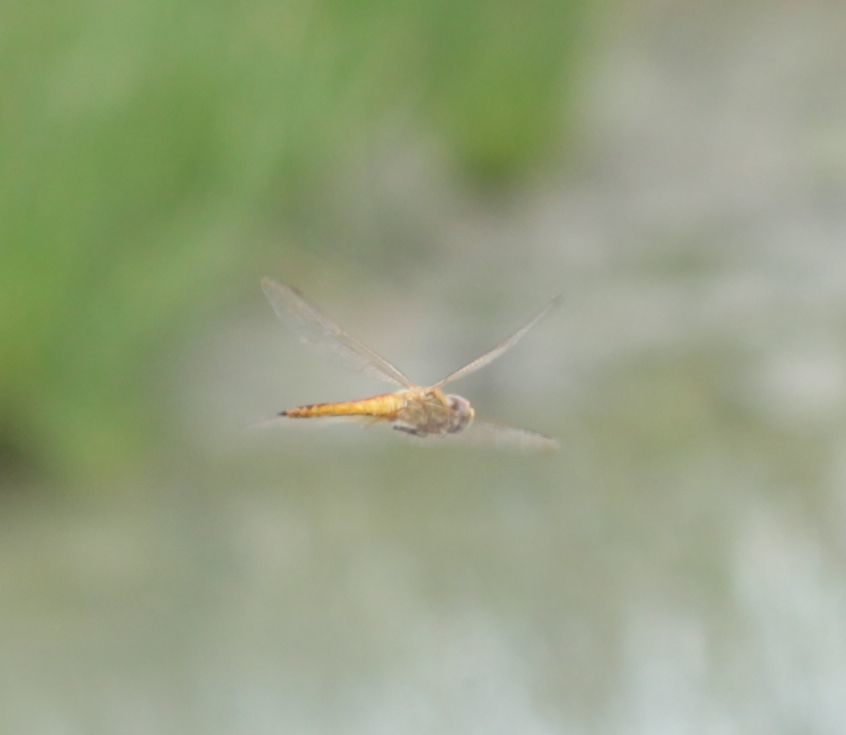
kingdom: Animalia
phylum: Arthropoda
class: Insecta
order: Odonata
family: Libellulidae
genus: Pantala
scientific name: Pantala flavescens
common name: Wandering glider
